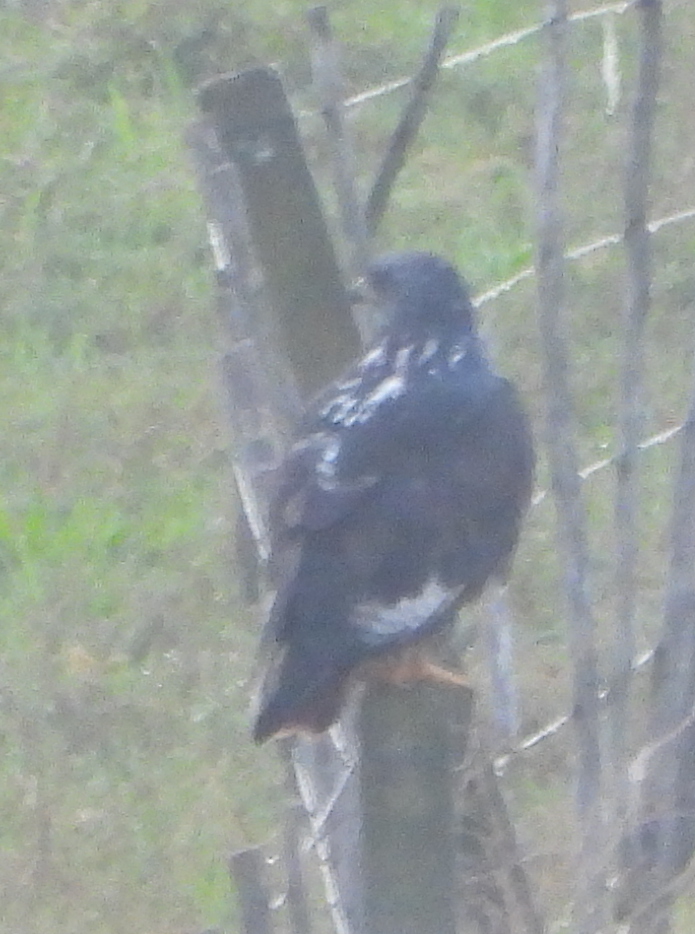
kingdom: Animalia
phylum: Chordata
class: Aves
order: Accipitriformes
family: Accipitridae
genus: Buteo
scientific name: Buteo rufofuscus
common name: Jackal buzzard
